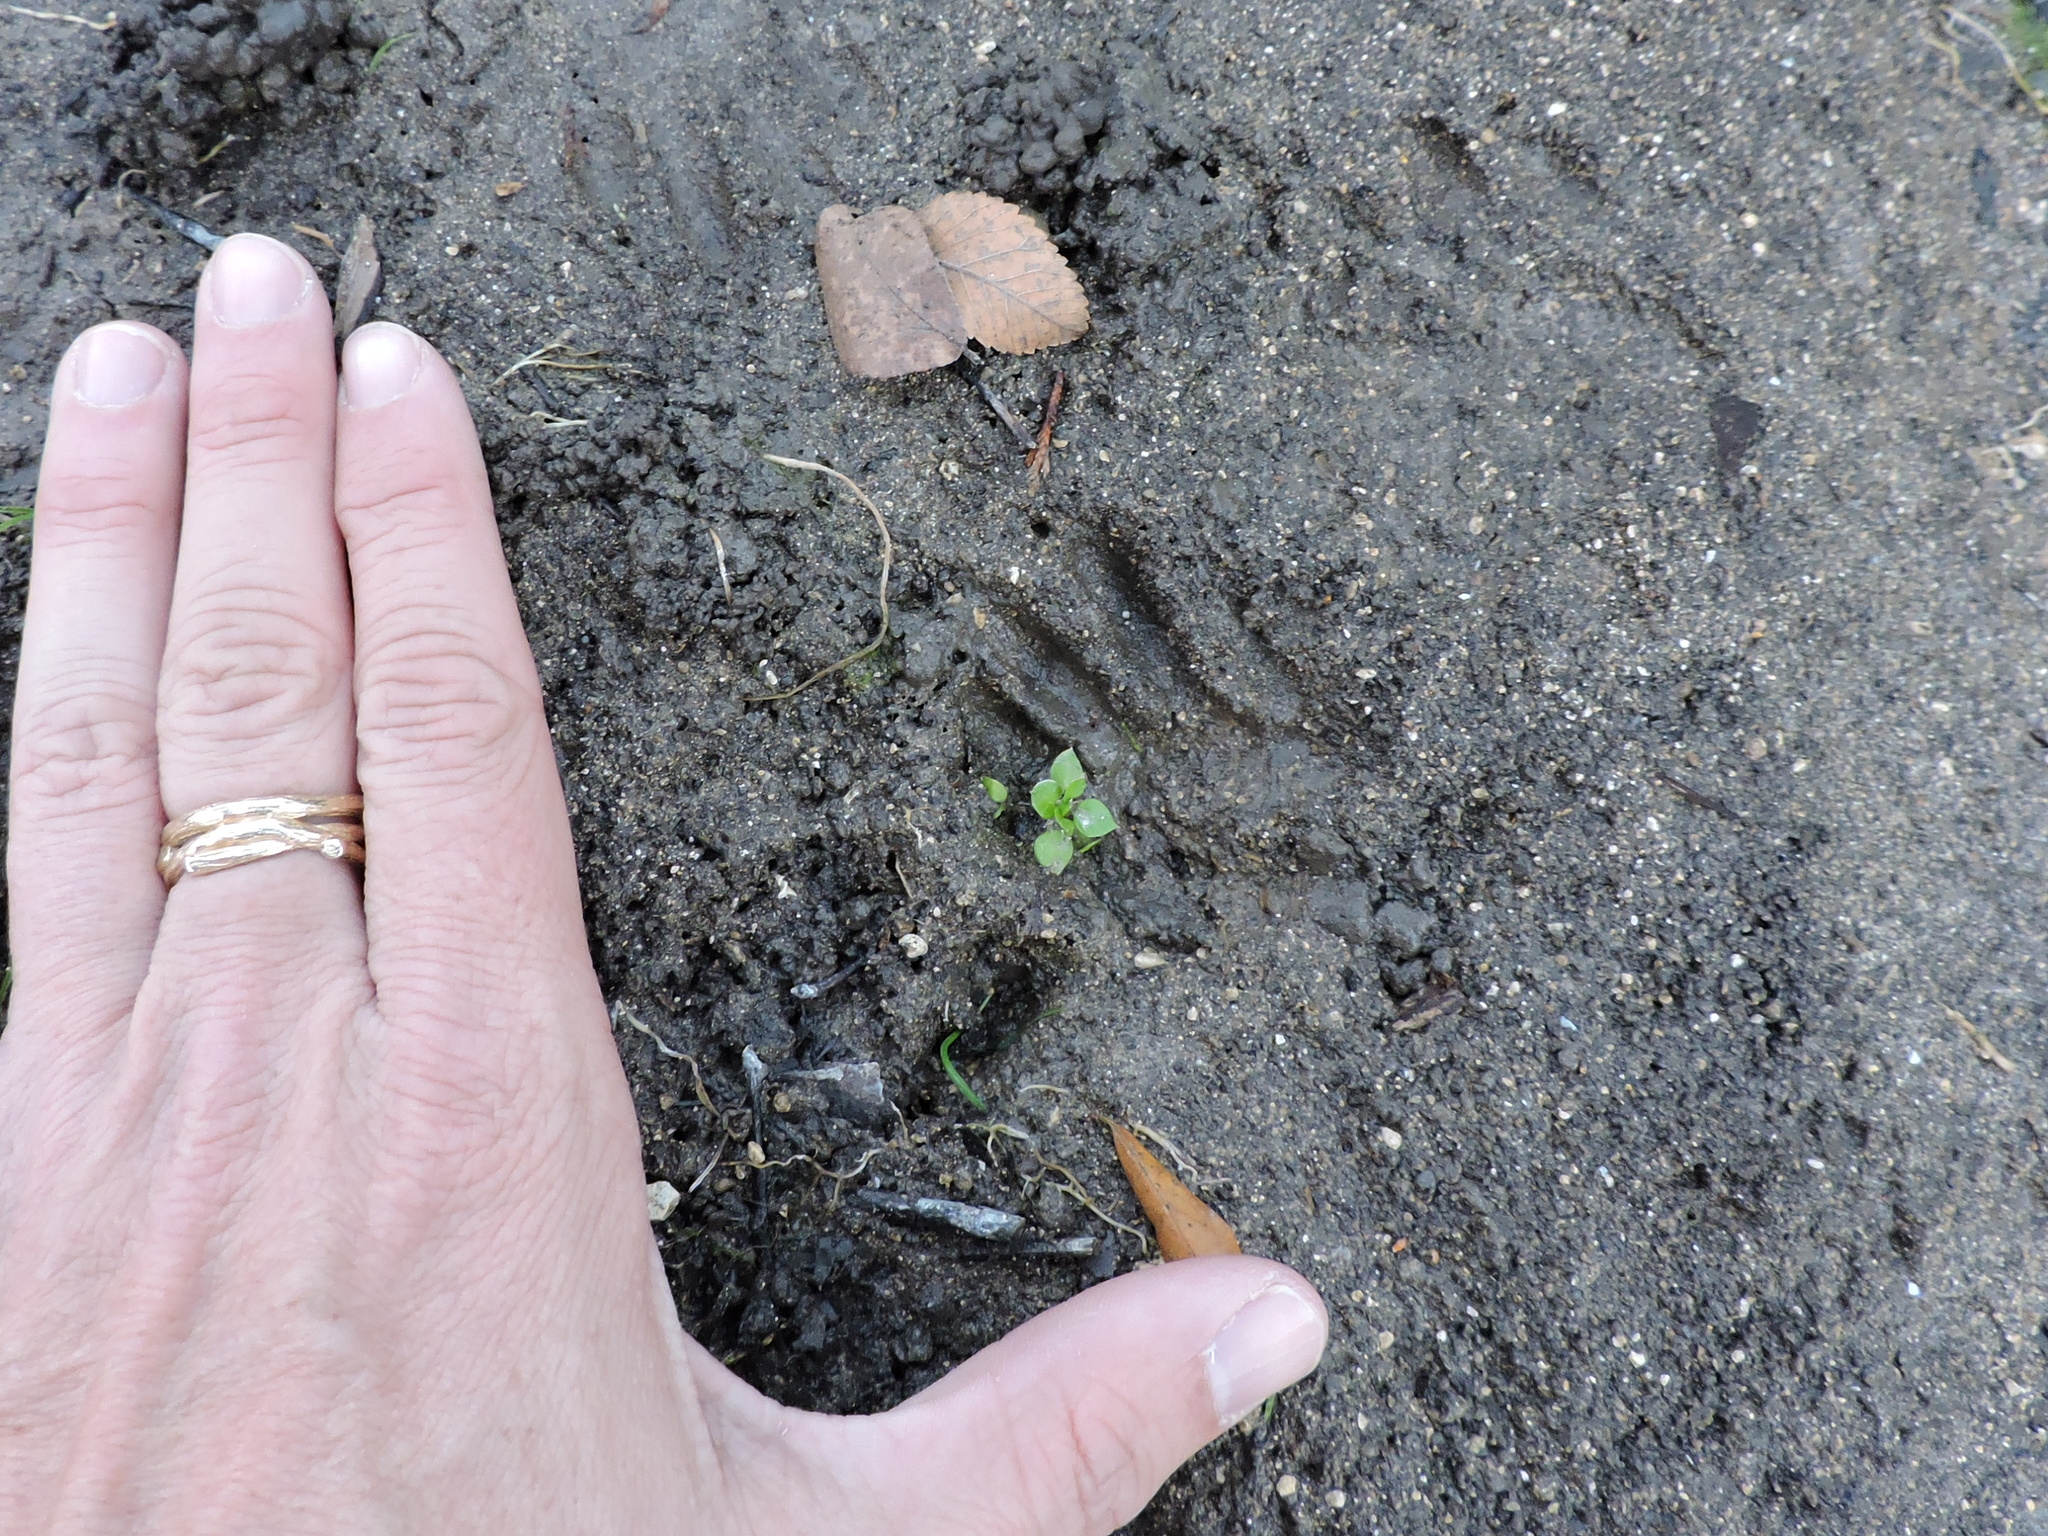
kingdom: Animalia
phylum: Chordata
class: Mammalia
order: Carnivora
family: Procyonidae
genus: Procyon
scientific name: Procyon lotor
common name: Raccoon
